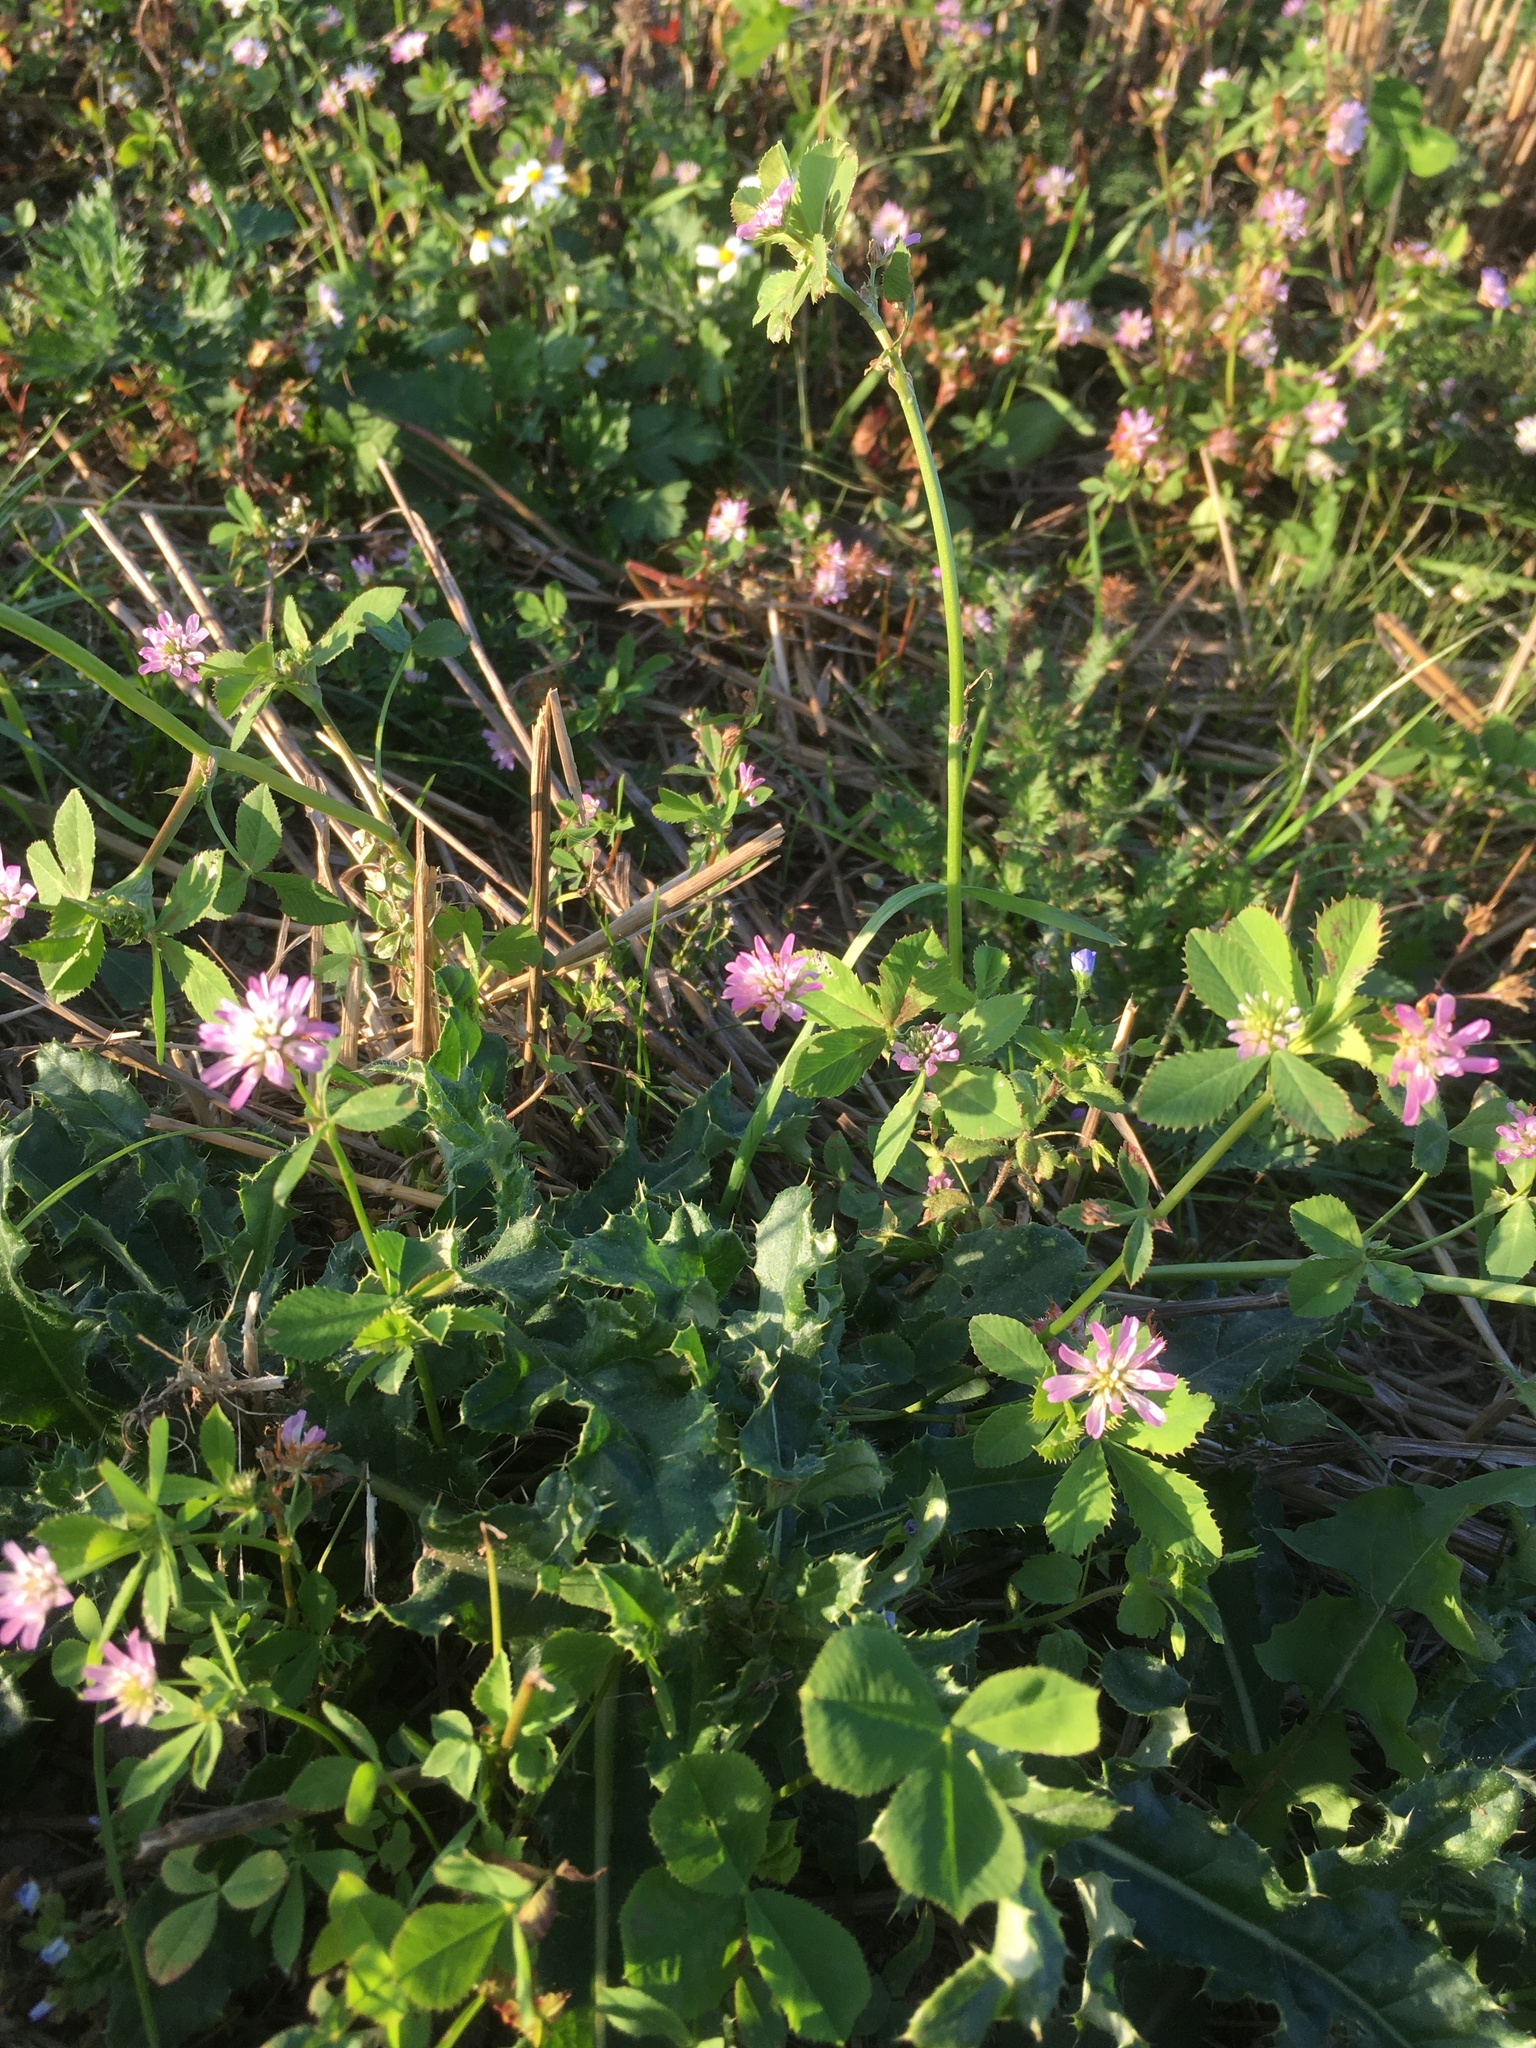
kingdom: Plantae
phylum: Tracheophyta
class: Magnoliopsida
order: Fabales
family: Fabaceae
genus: Trifolium
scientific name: Trifolium resupinatum
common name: Reversed clover
